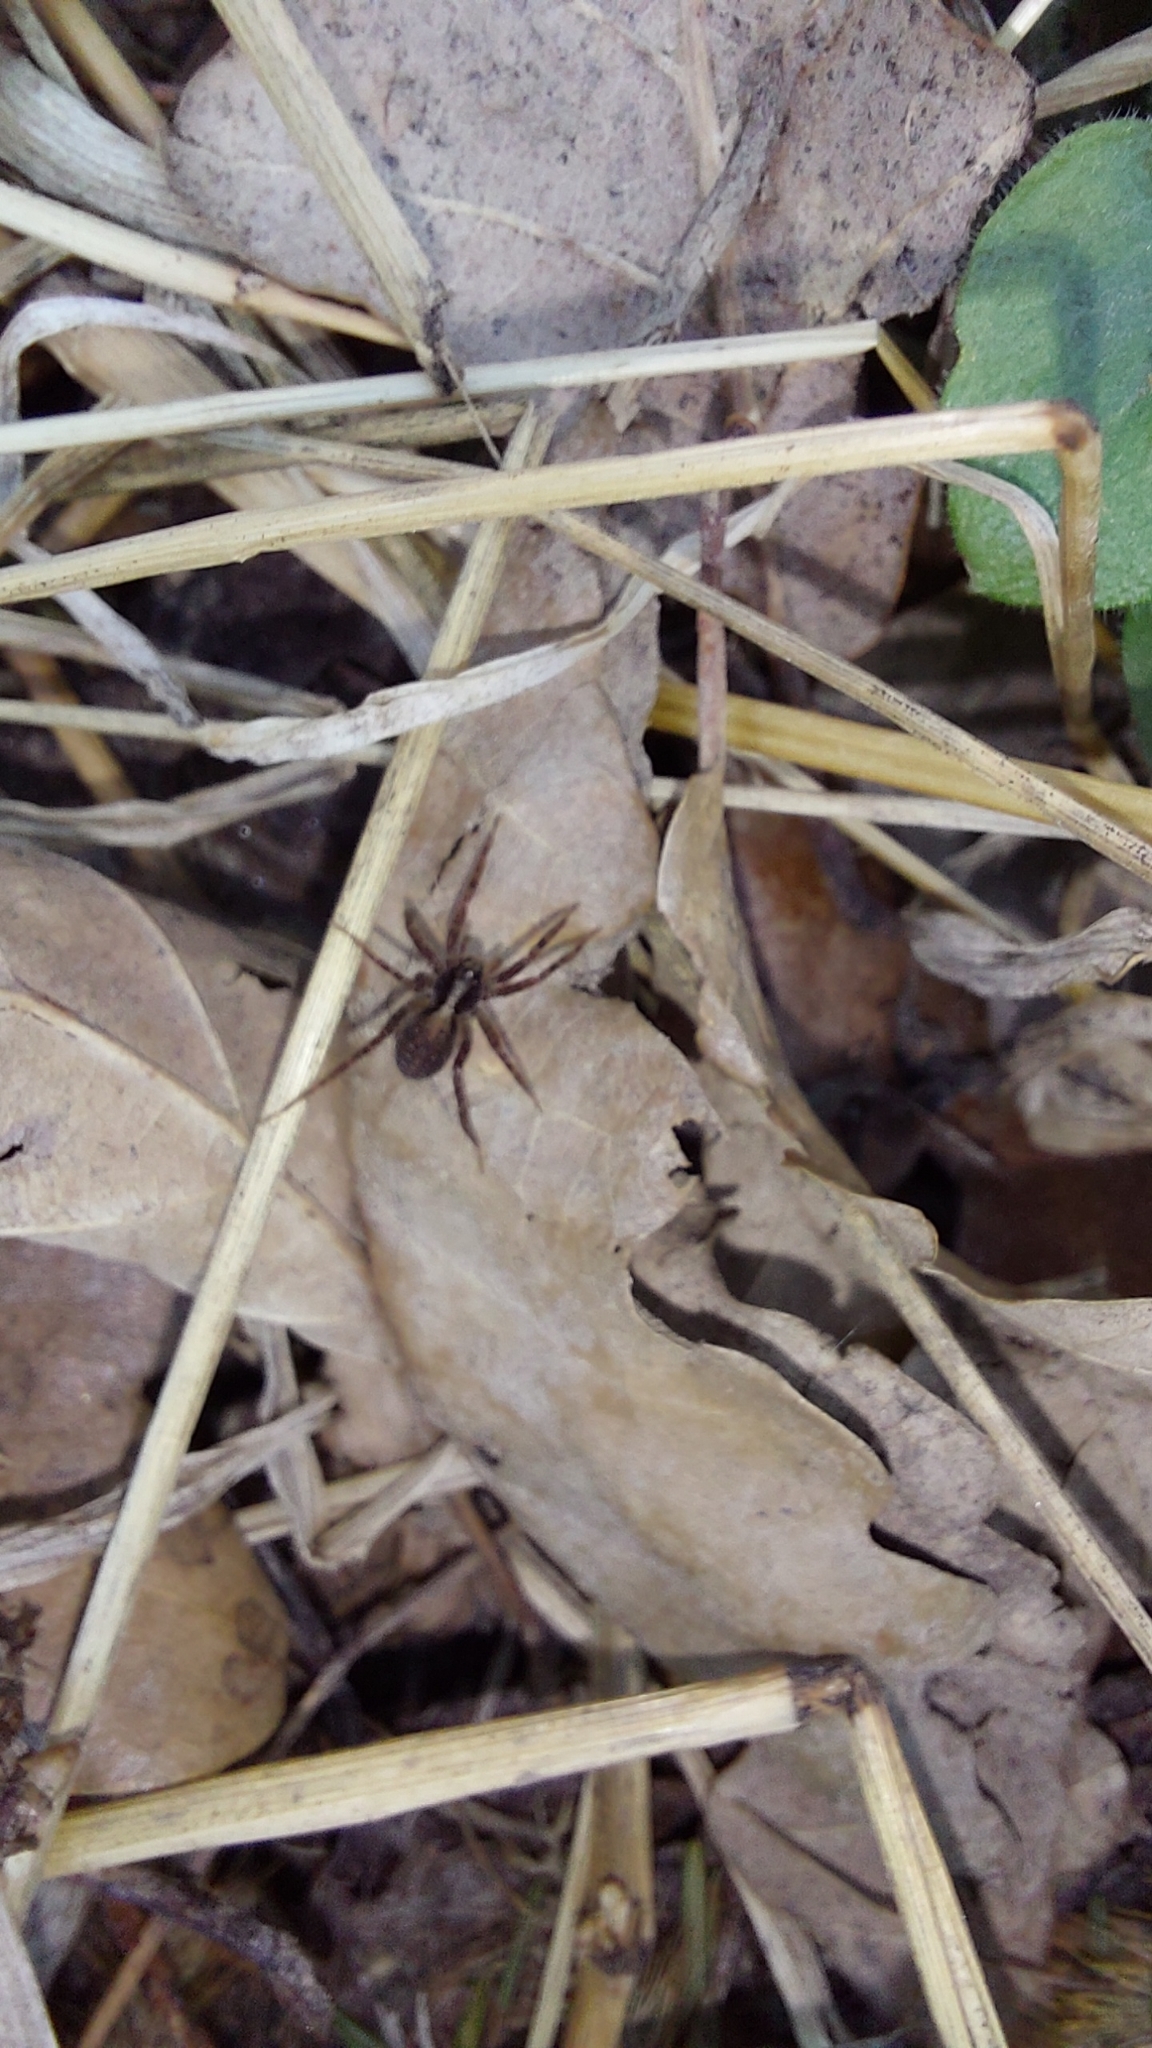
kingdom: Animalia
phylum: Arthropoda
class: Arachnida
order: Araneae
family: Lycosidae
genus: Pardosa
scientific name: Pardosa
